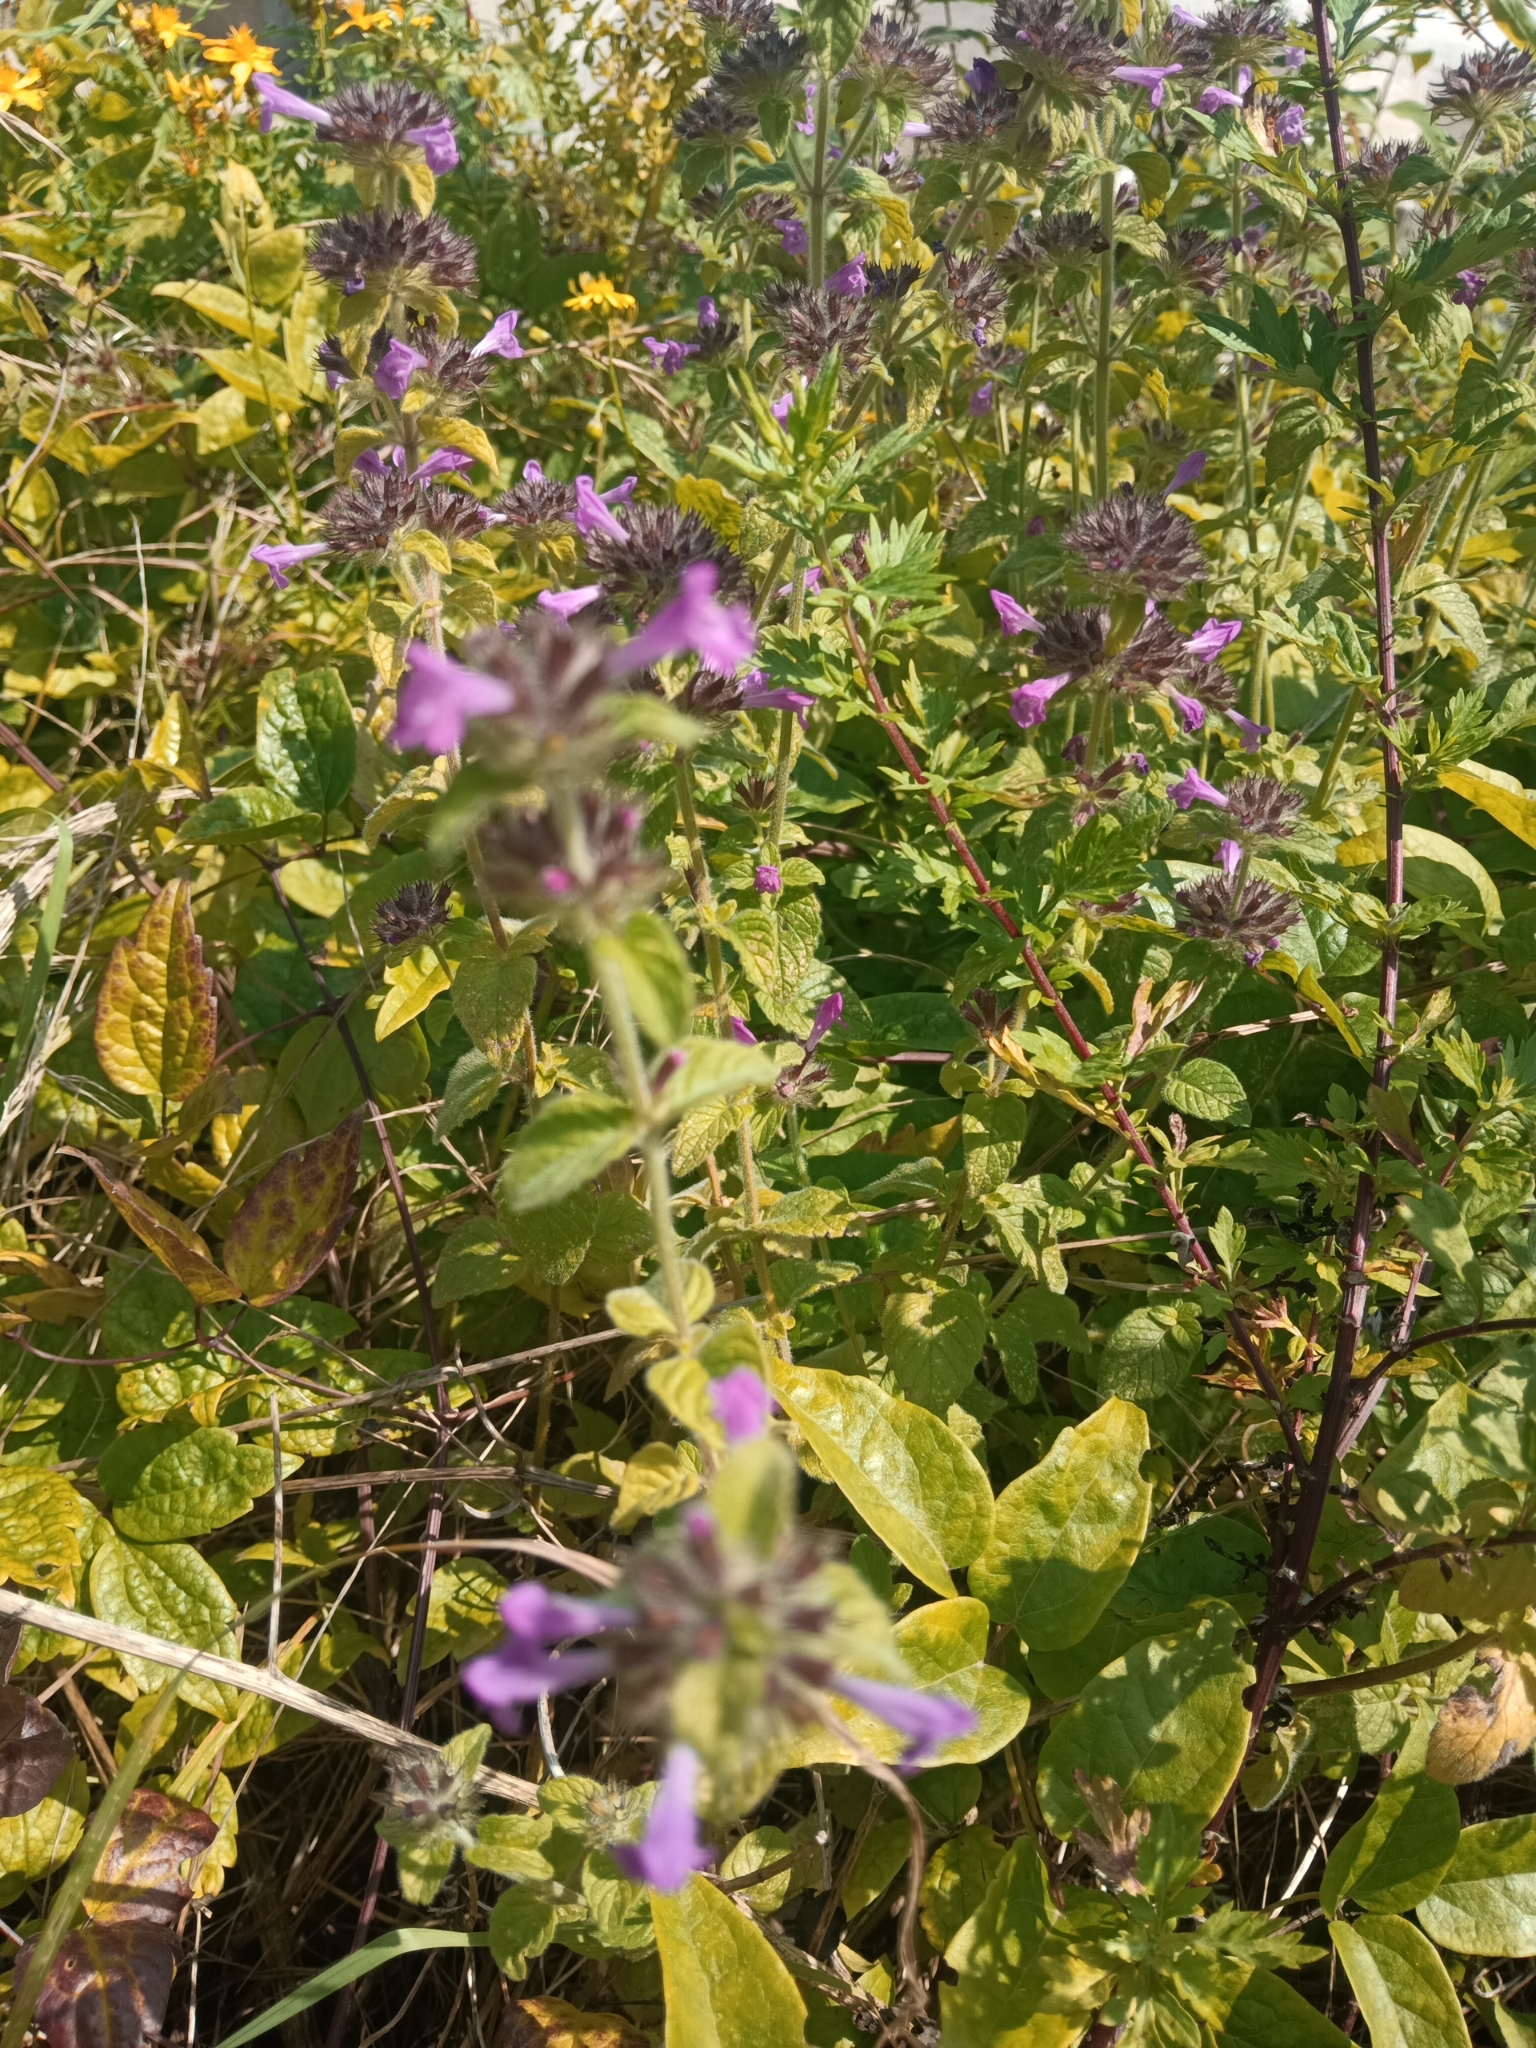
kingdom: Plantae
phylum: Tracheophyta
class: Magnoliopsida
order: Lamiales
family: Lamiaceae
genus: Clinopodium
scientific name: Clinopodium vulgare
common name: Wild basil
